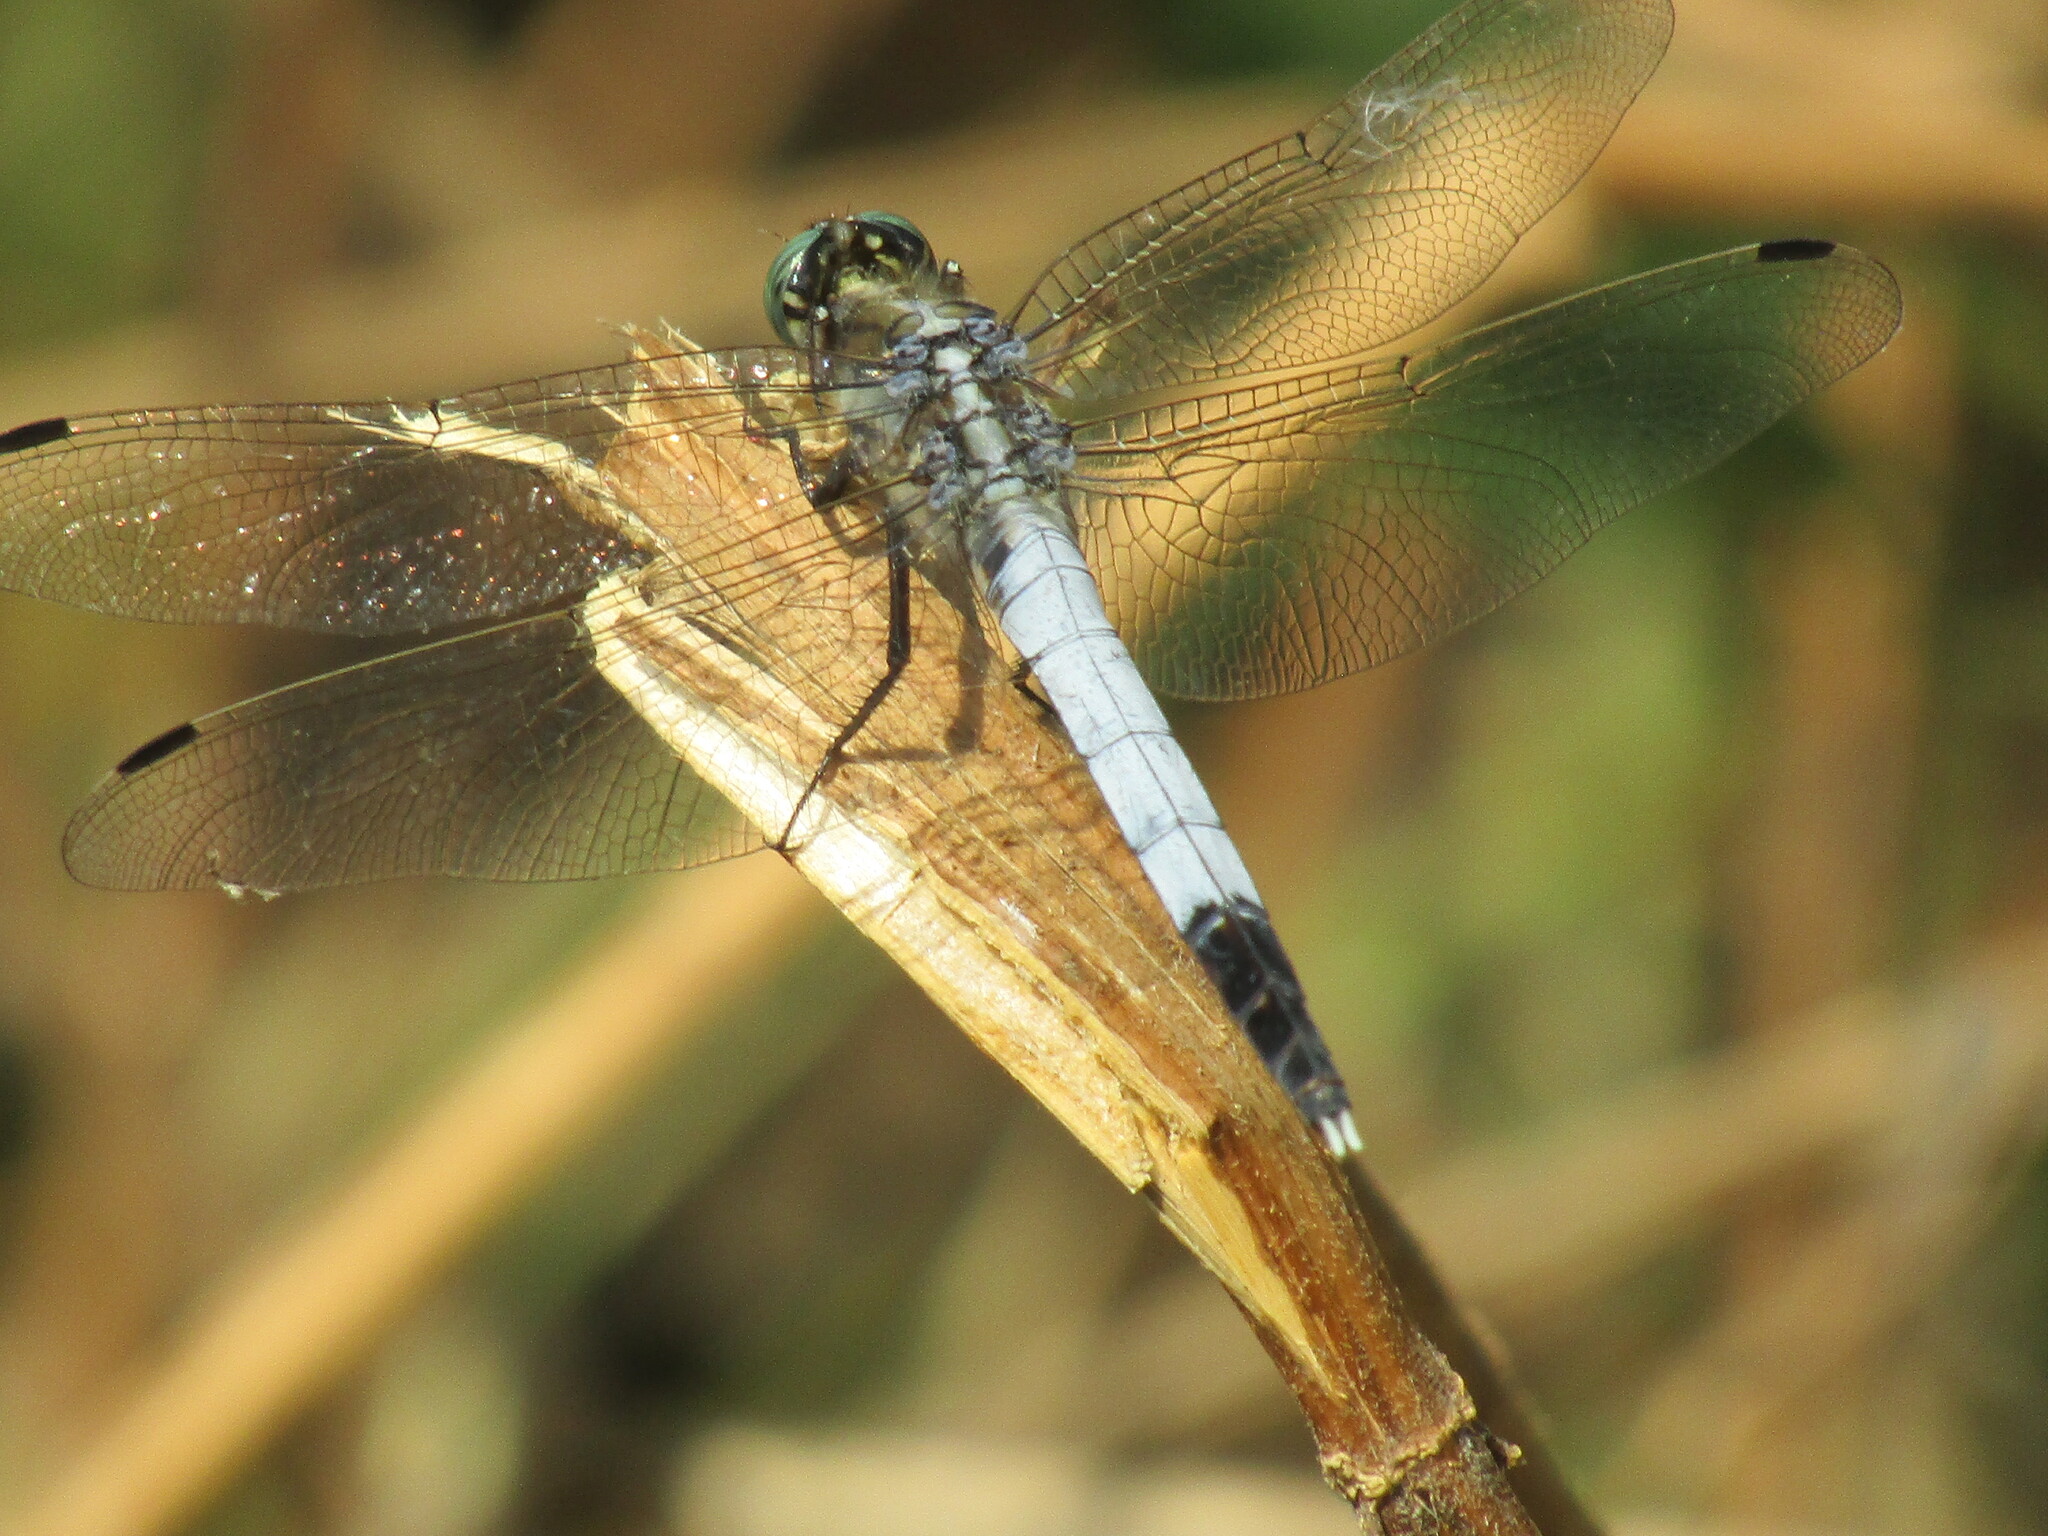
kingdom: Animalia
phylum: Arthropoda
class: Insecta
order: Odonata
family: Libellulidae
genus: Orthetrum
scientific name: Orthetrum albistylum
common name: White-tailed skimmer
